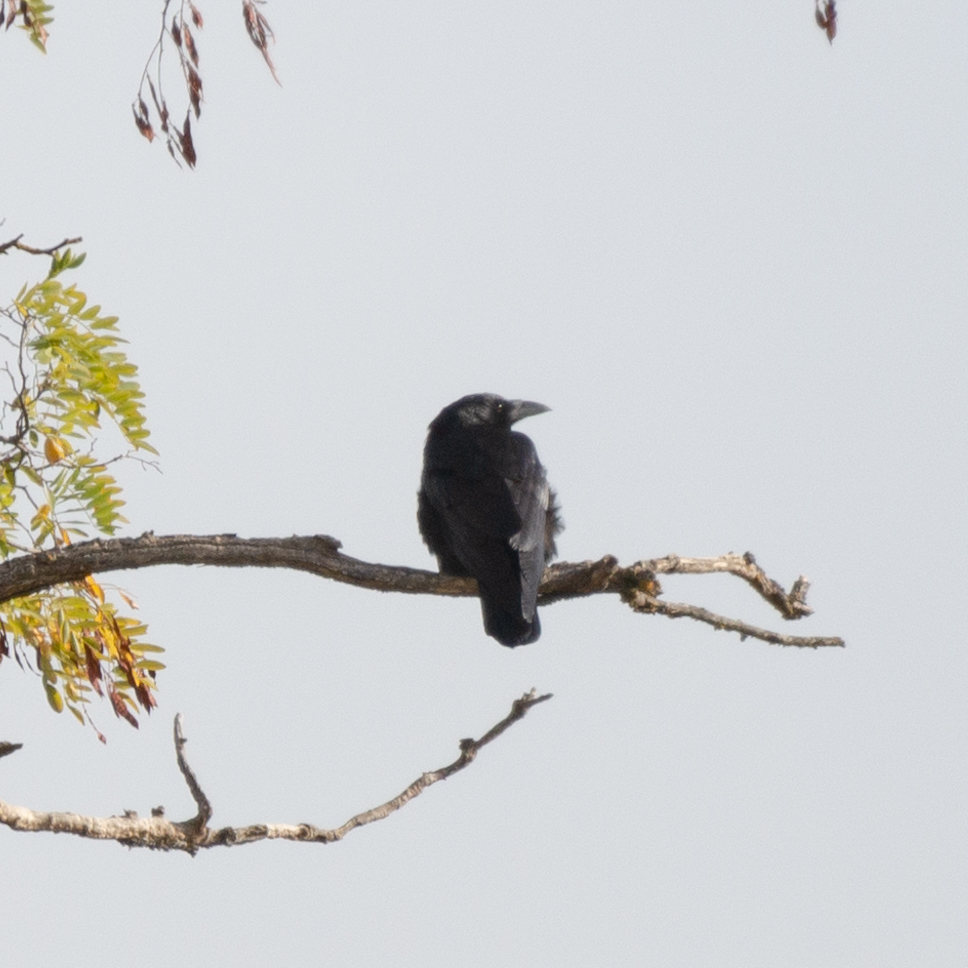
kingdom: Animalia
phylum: Chordata
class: Aves
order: Passeriformes
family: Corvidae
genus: Corvus
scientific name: Corvus corone
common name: Carrion crow
